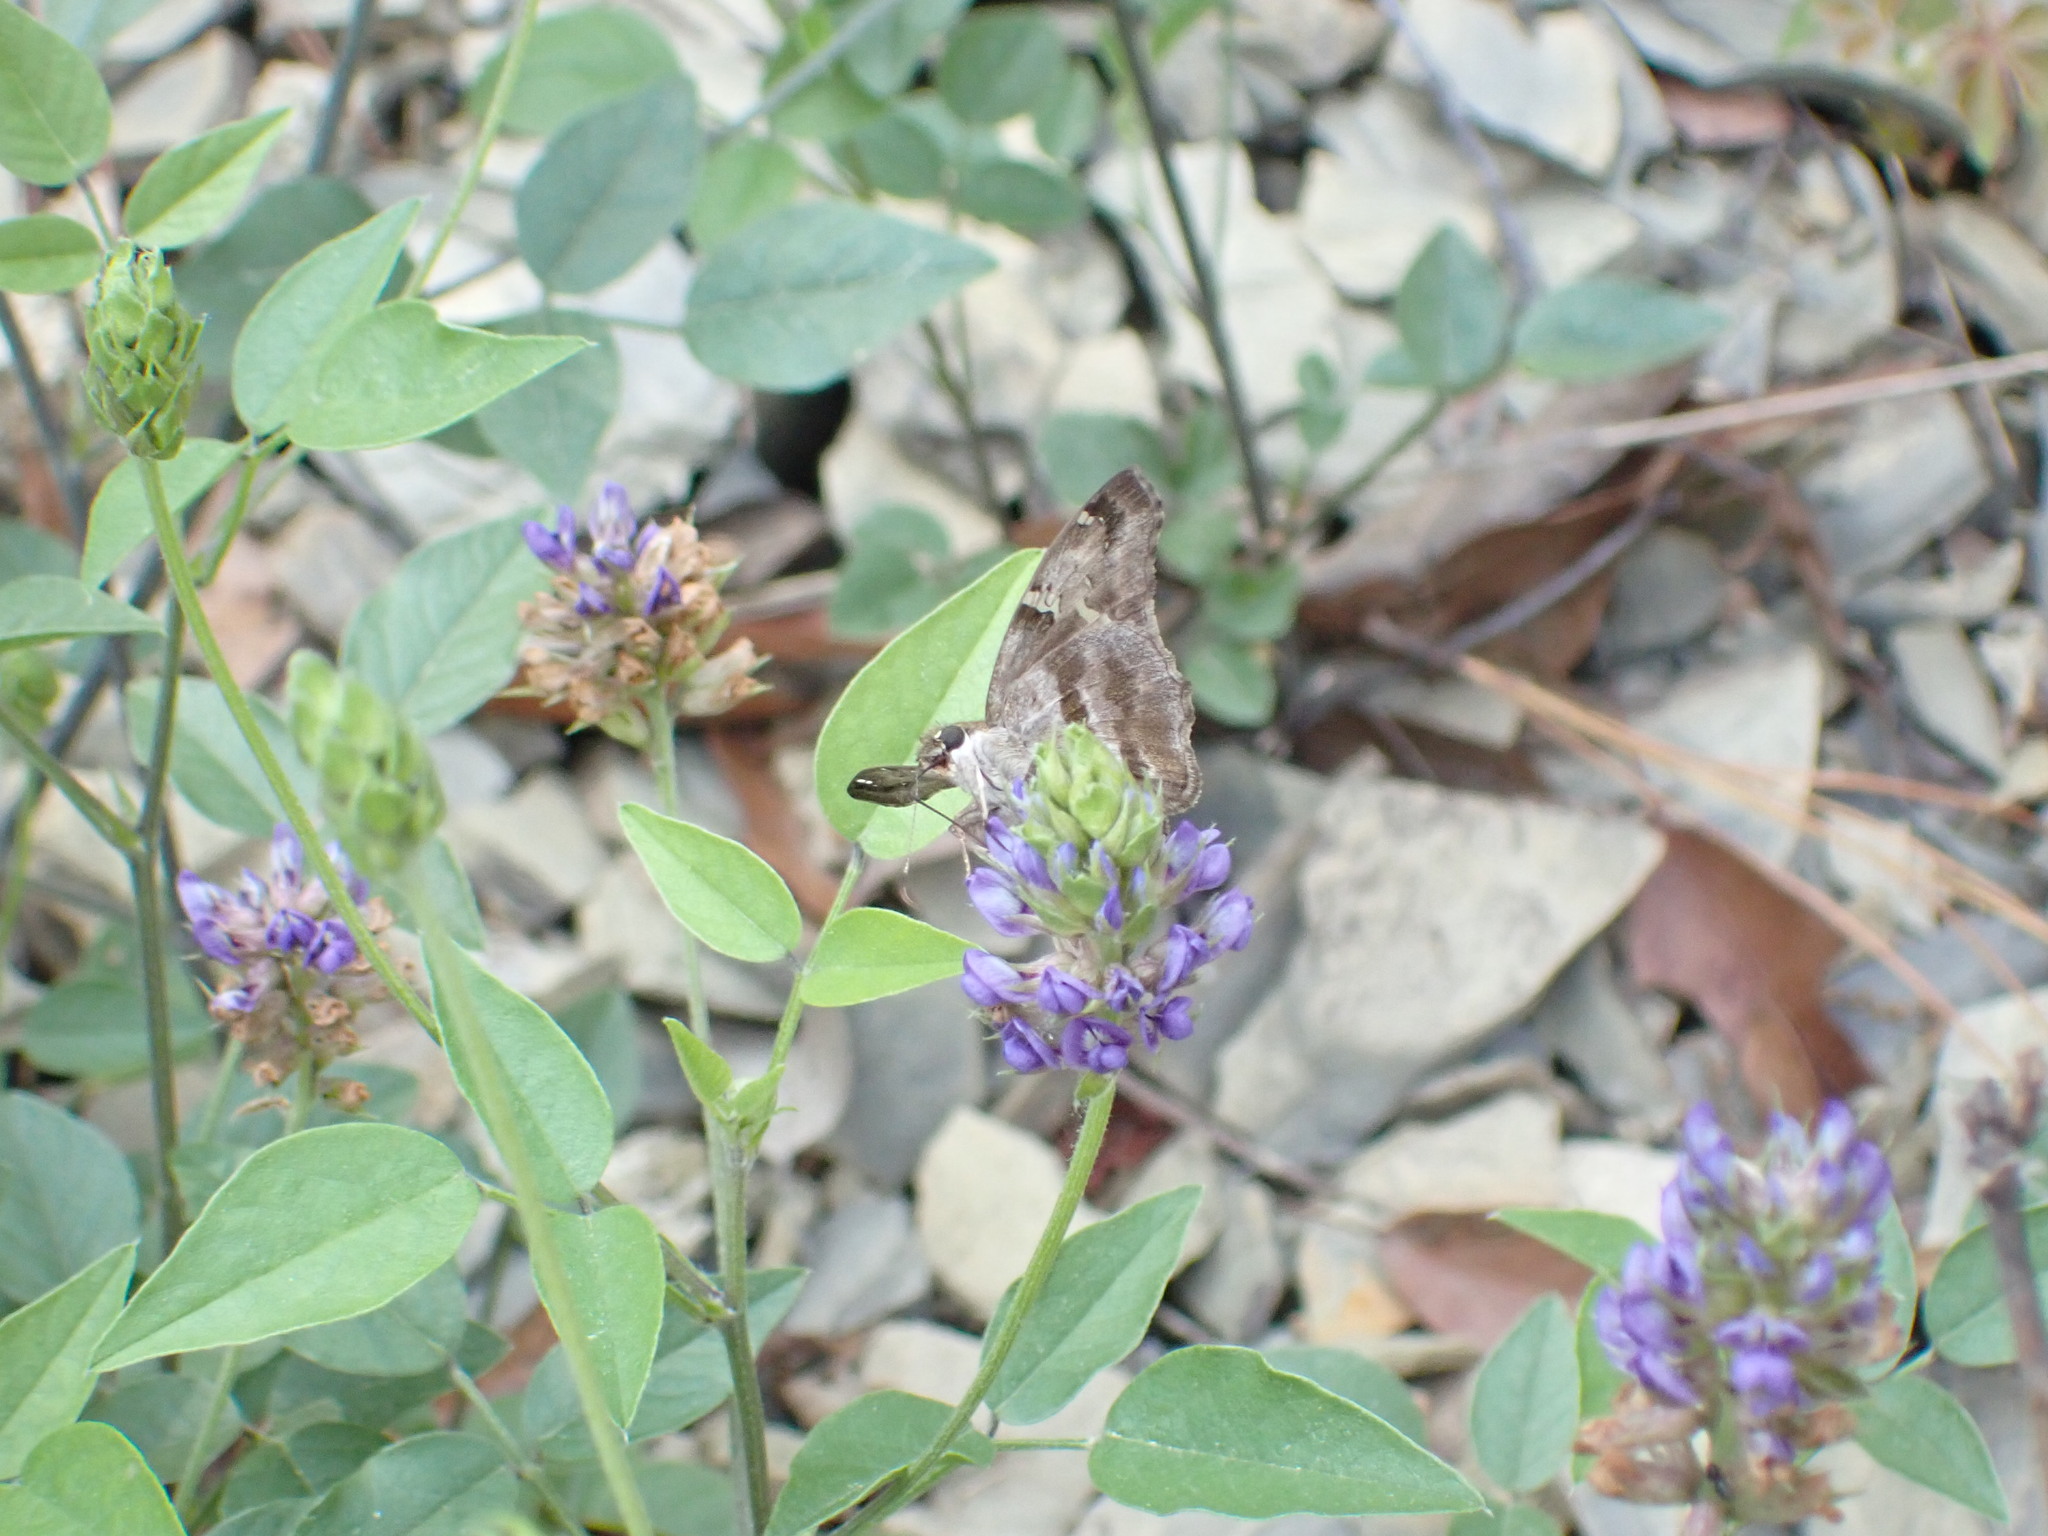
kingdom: Animalia
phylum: Arthropoda
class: Insecta
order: Lepidoptera
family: Hesperiidae
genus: Autochton
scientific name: Autochton potrillo
